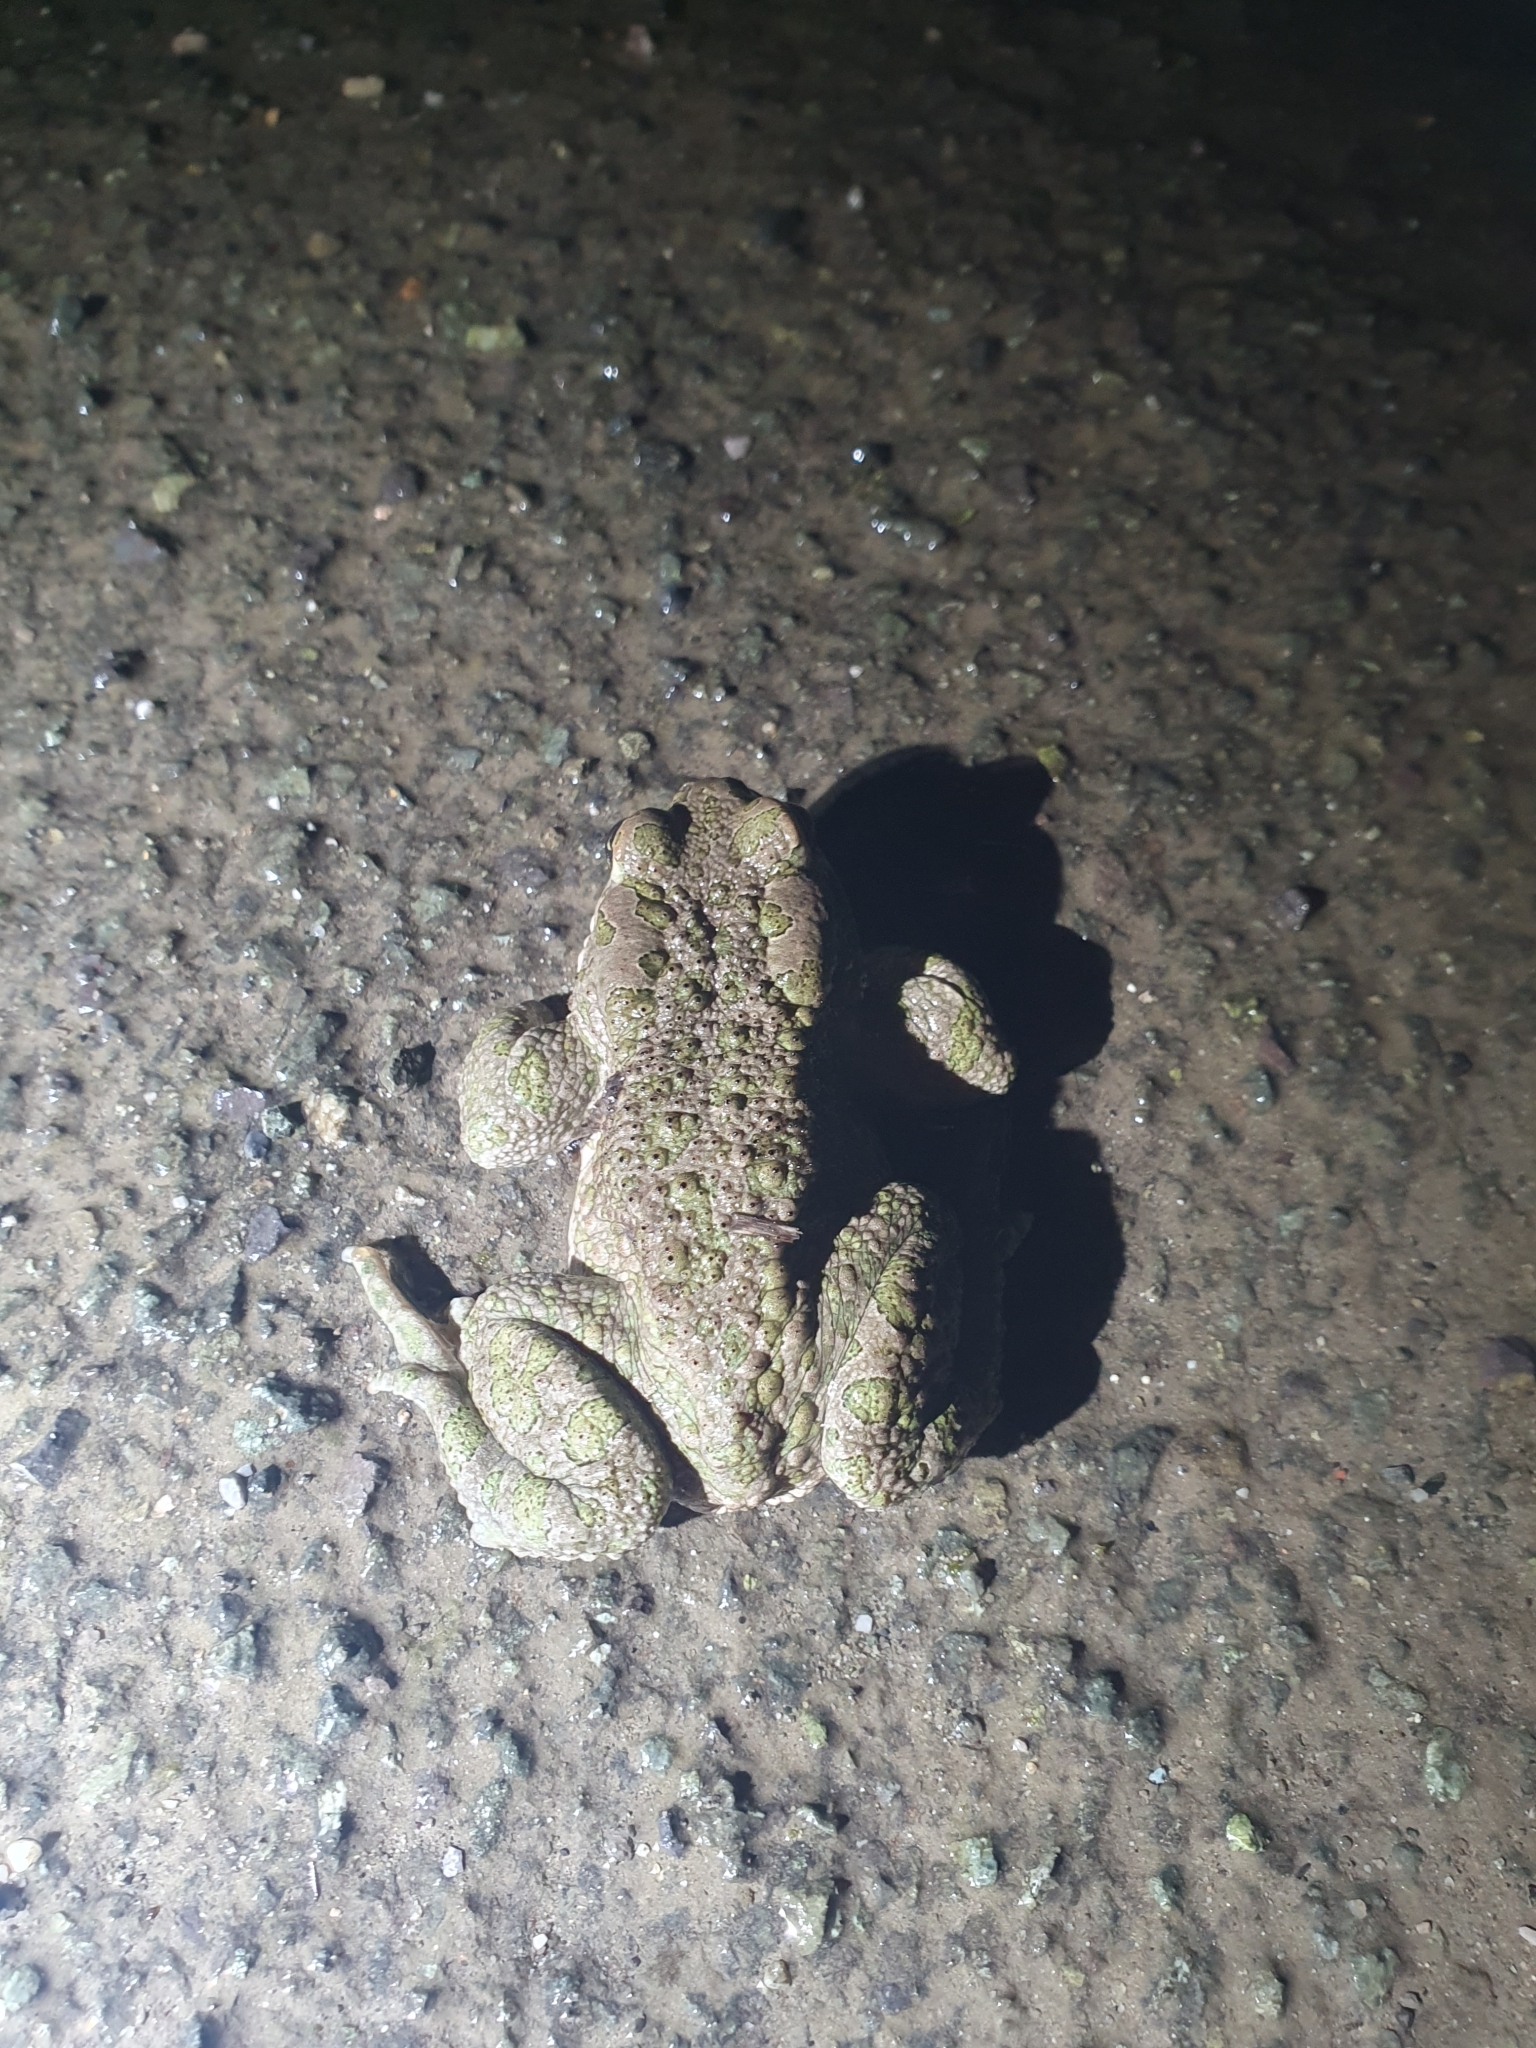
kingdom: Animalia
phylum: Chordata
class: Amphibia
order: Anura
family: Bufonidae
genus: Bufotes
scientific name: Bufotes viridis
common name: European green toad
